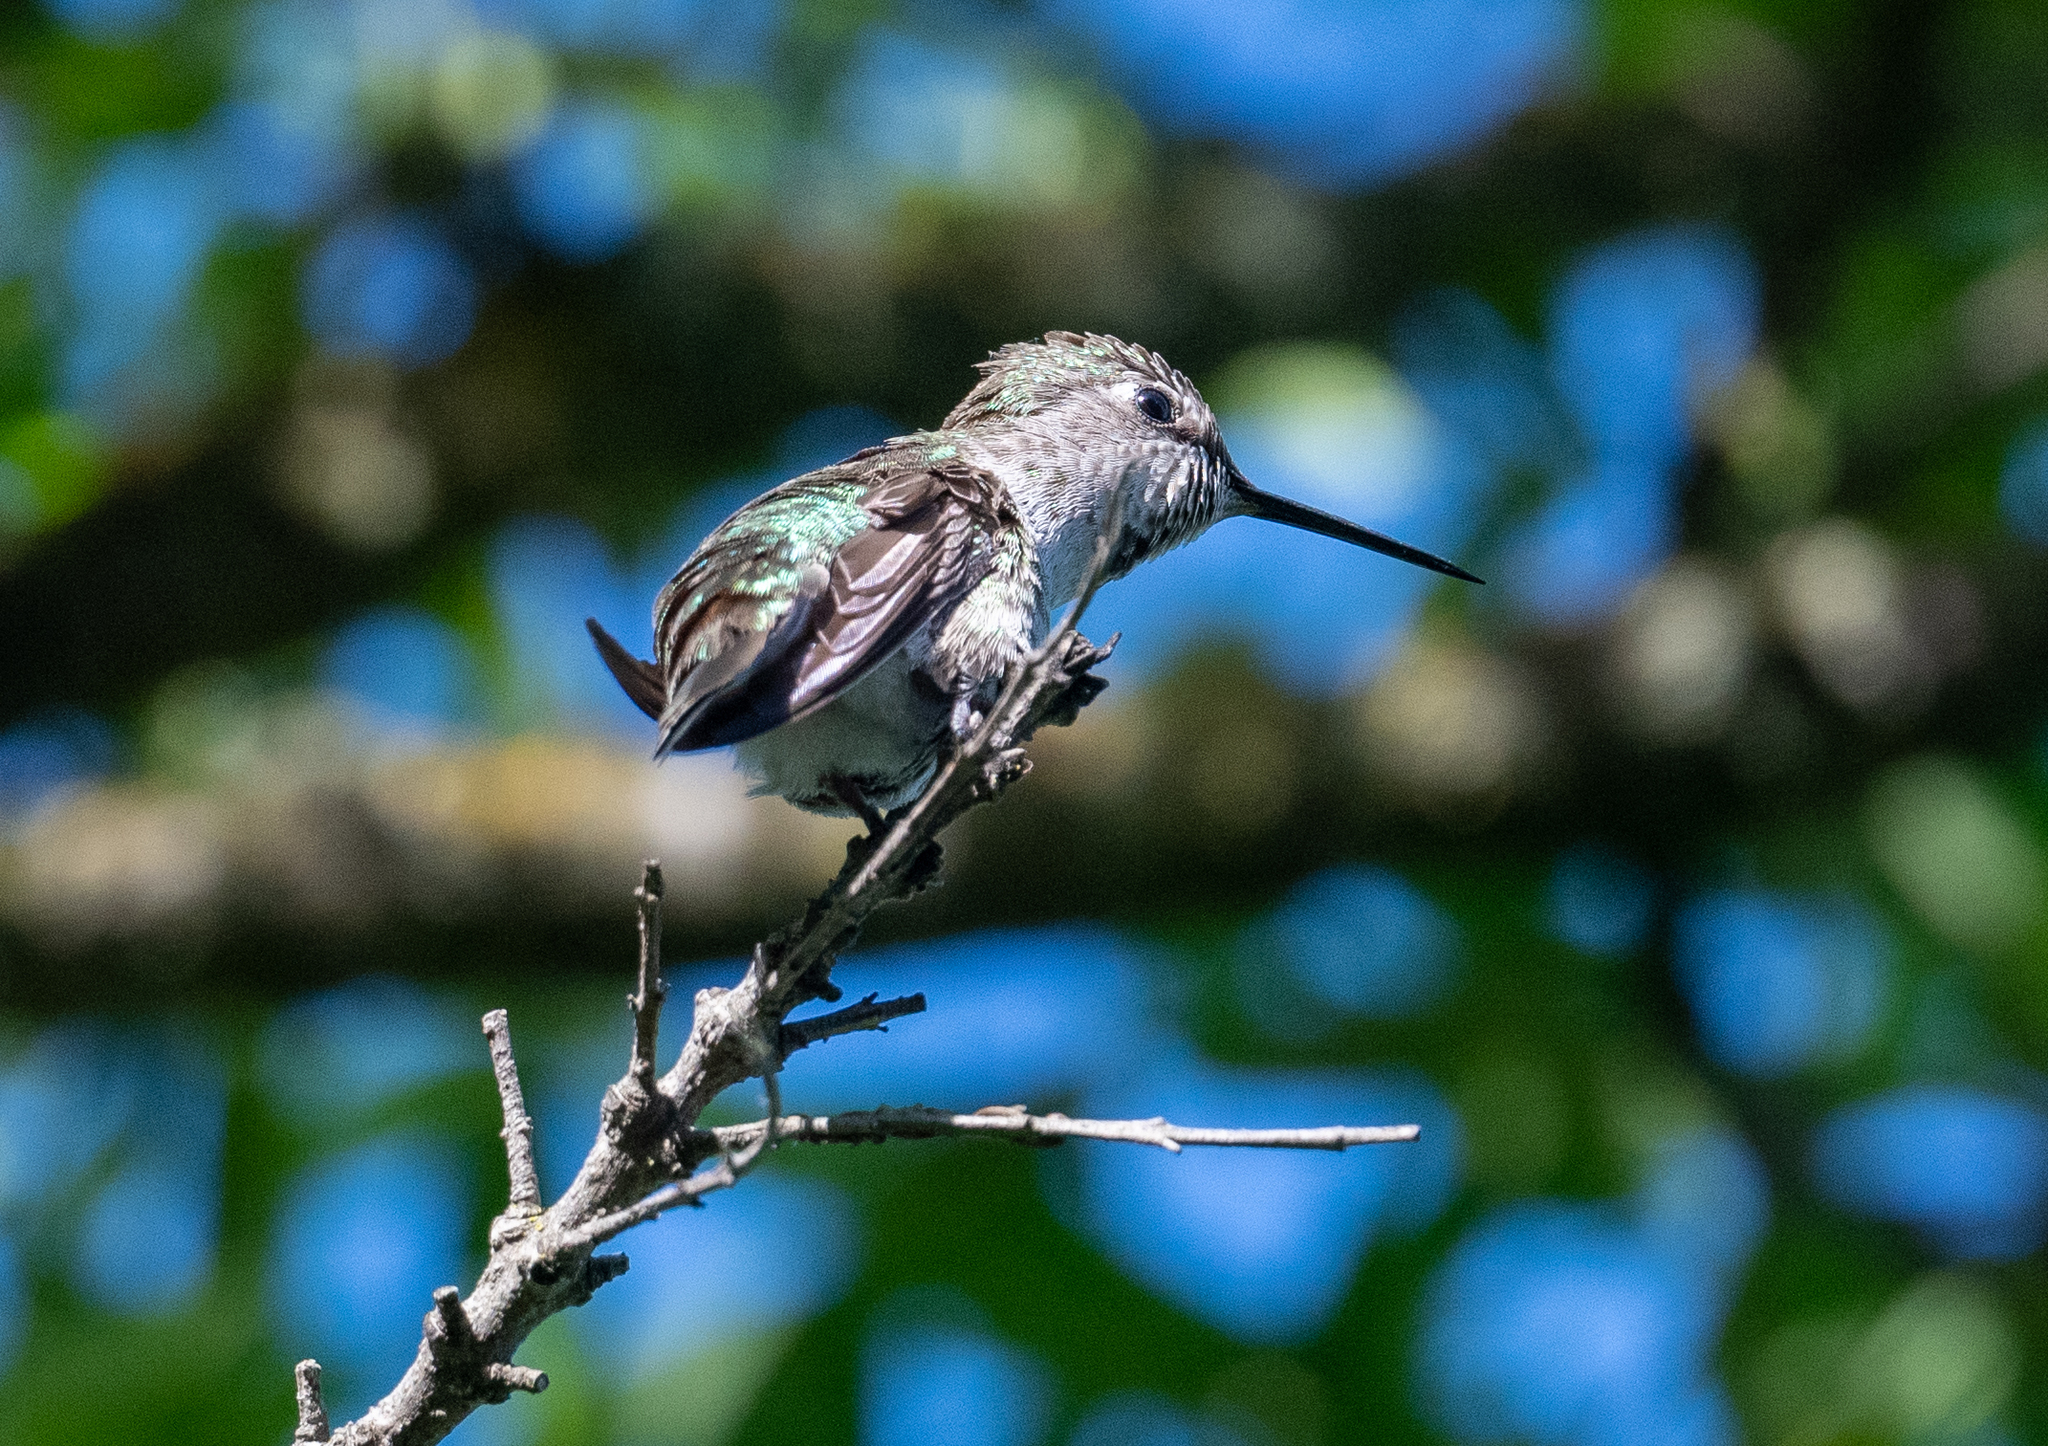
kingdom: Animalia
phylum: Chordata
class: Aves
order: Apodiformes
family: Trochilidae
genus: Calypte
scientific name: Calypte anna
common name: Anna's hummingbird
